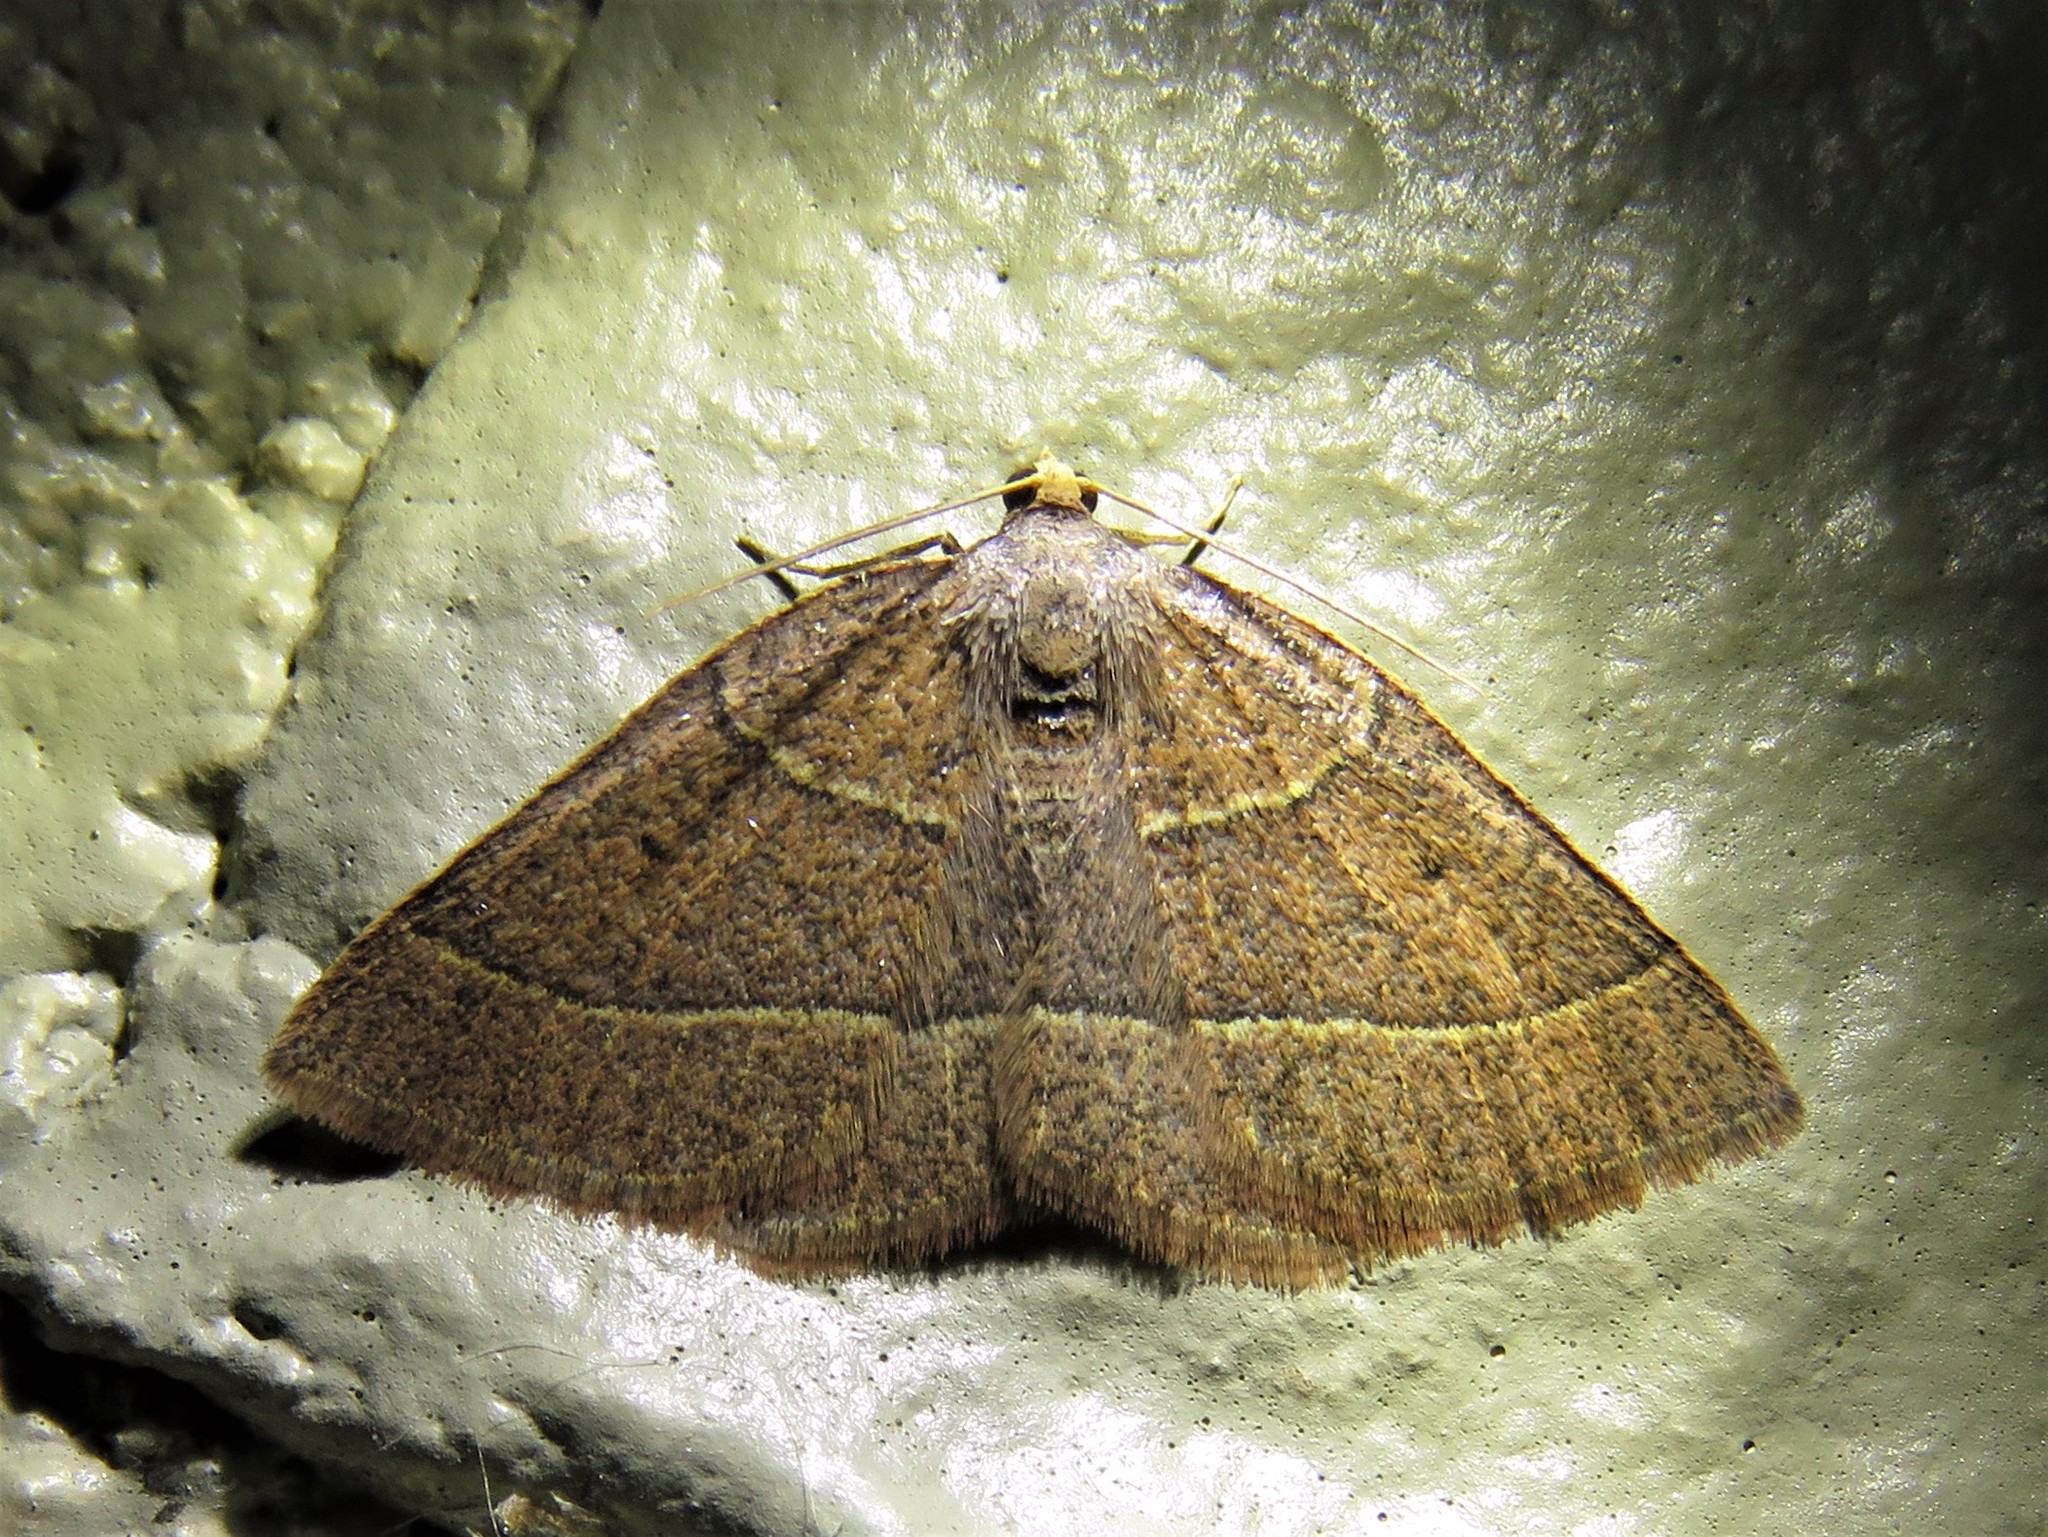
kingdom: Animalia
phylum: Arthropoda
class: Insecta
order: Lepidoptera
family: Geometridae
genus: Episemasia
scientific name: Episemasia cervinaria
